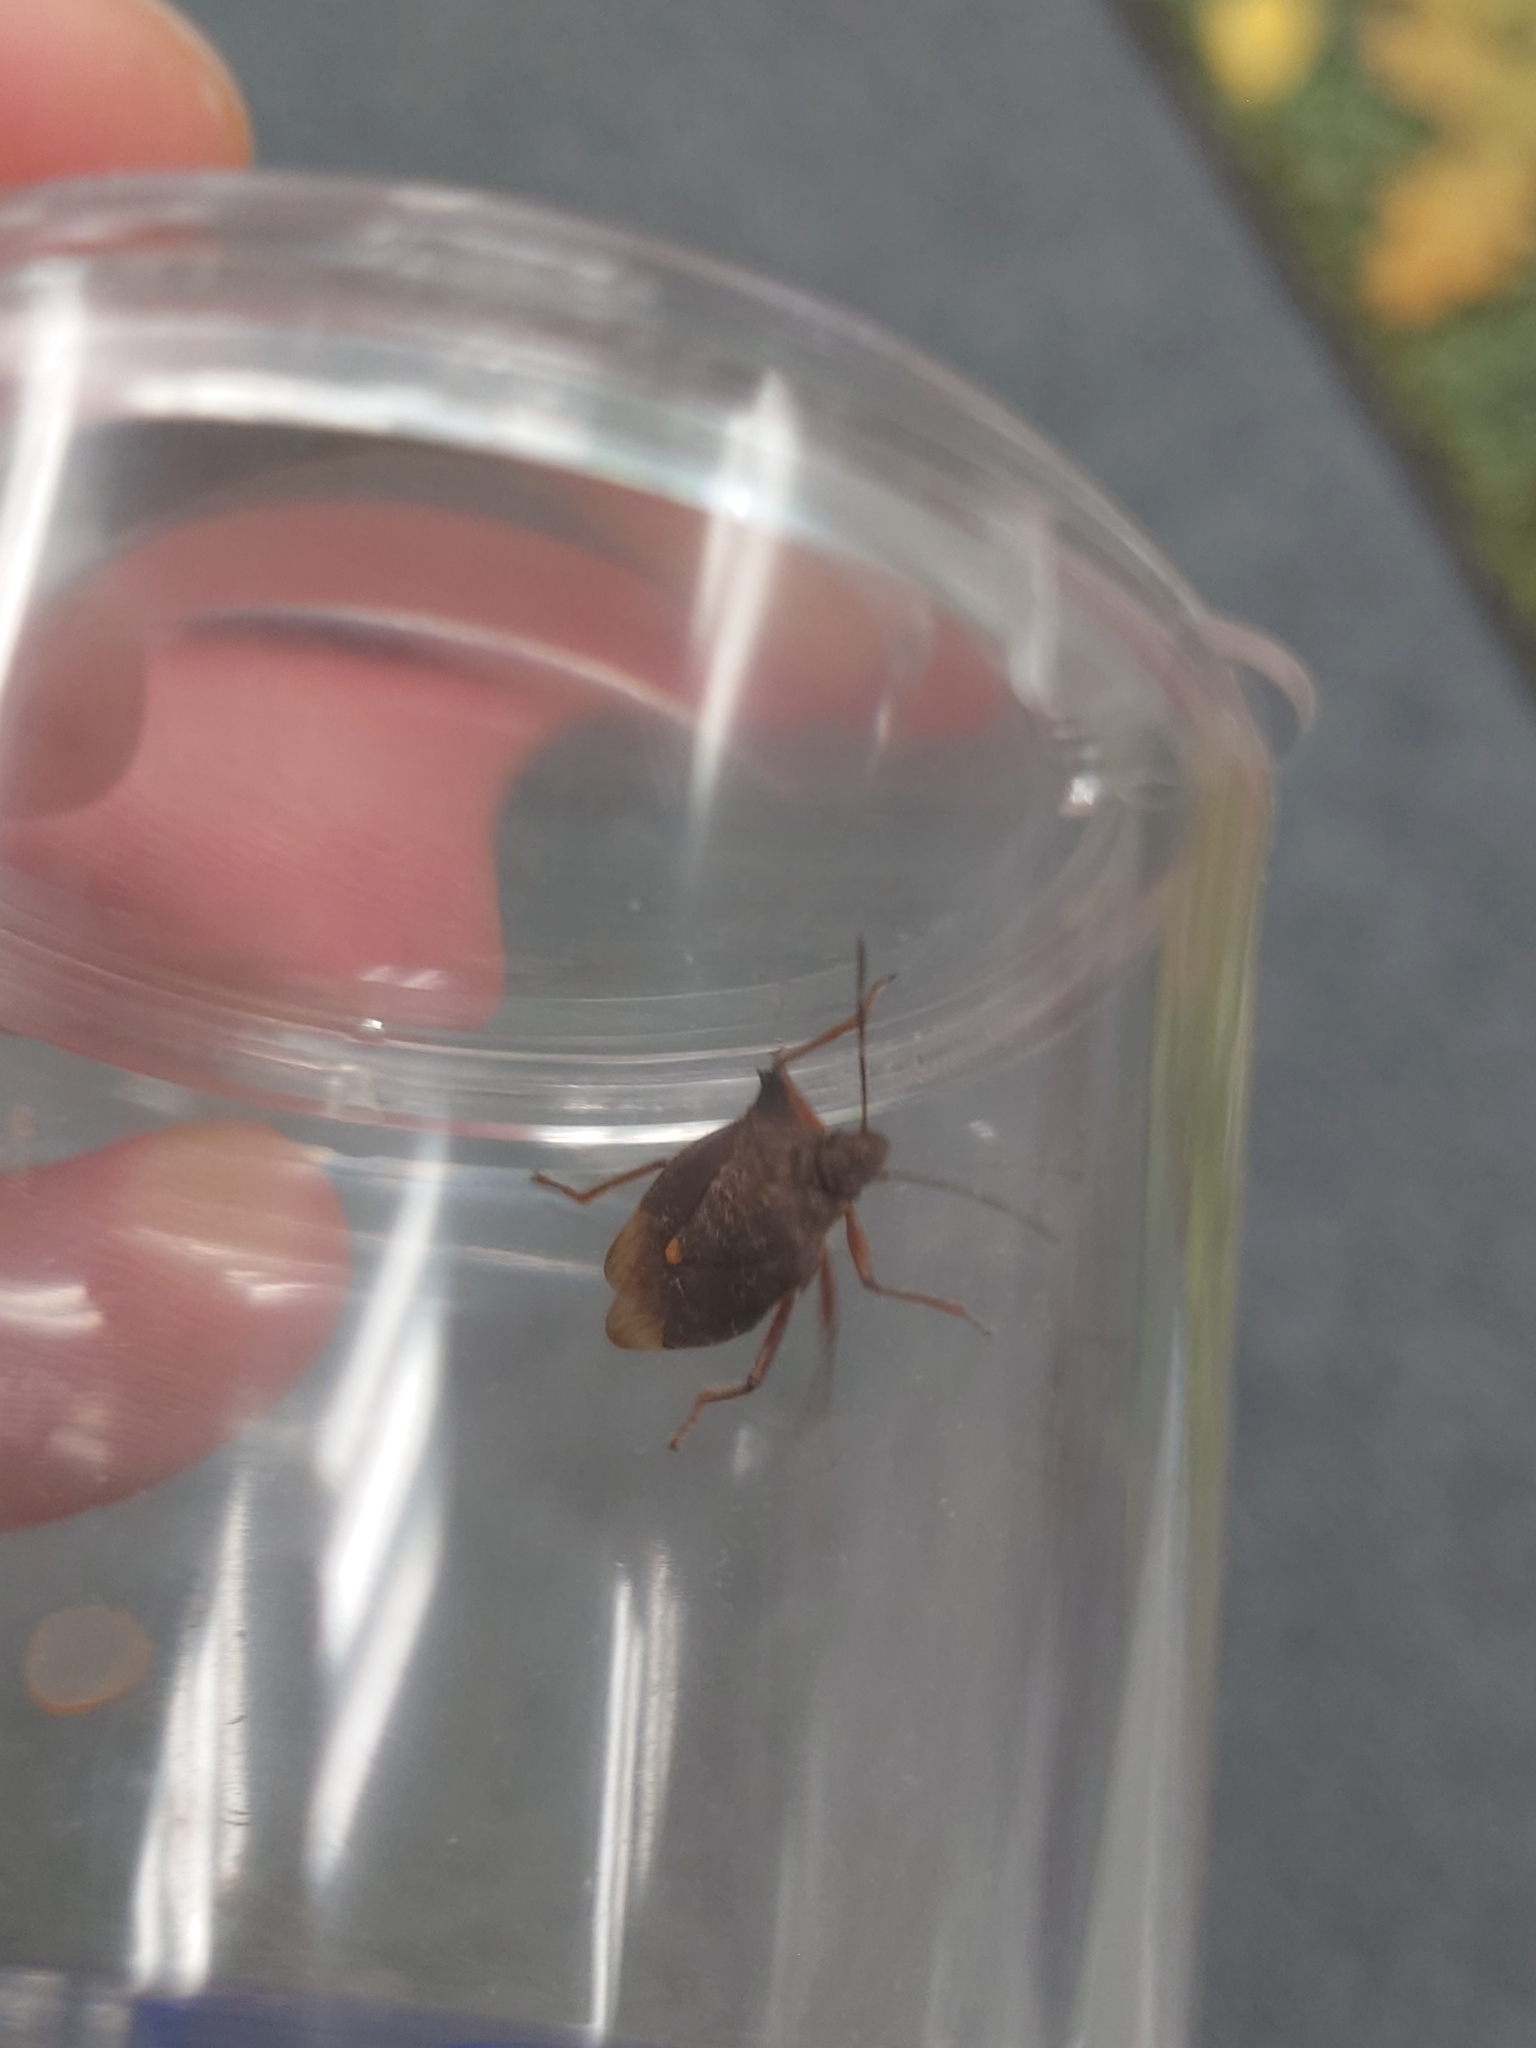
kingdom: Animalia
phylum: Arthropoda
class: Insecta
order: Hemiptera
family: Pentatomidae
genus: Pentatoma
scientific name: Pentatoma rufipes
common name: Forest bug
